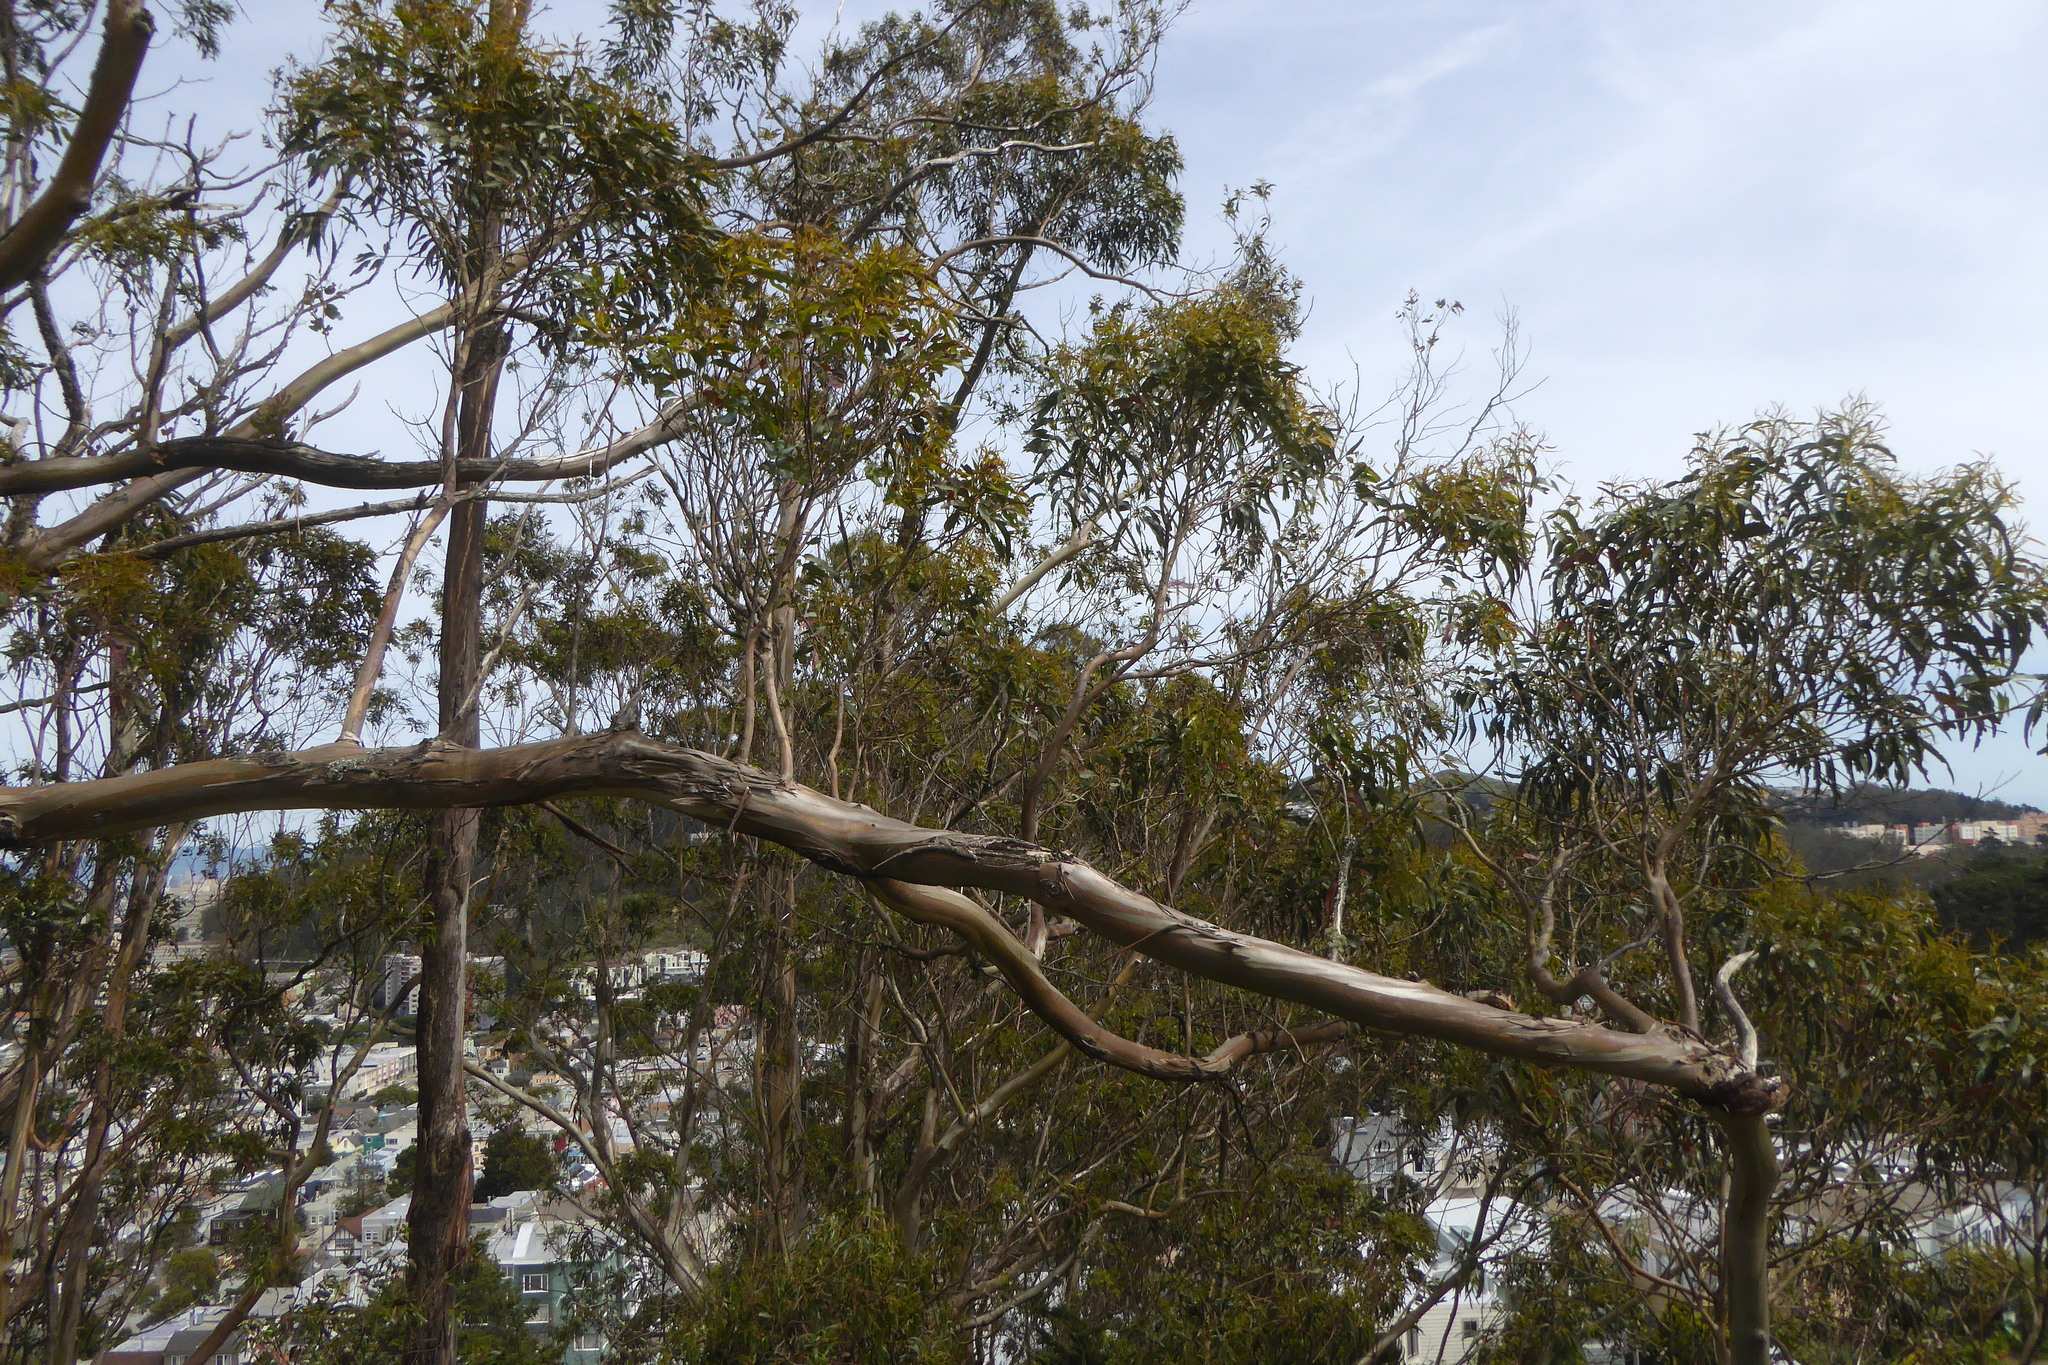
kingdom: Plantae
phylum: Tracheophyta
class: Magnoliopsida
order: Myrtales
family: Myrtaceae
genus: Eucalyptus
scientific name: Eucalyptus globulus
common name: Southern blue-gum
